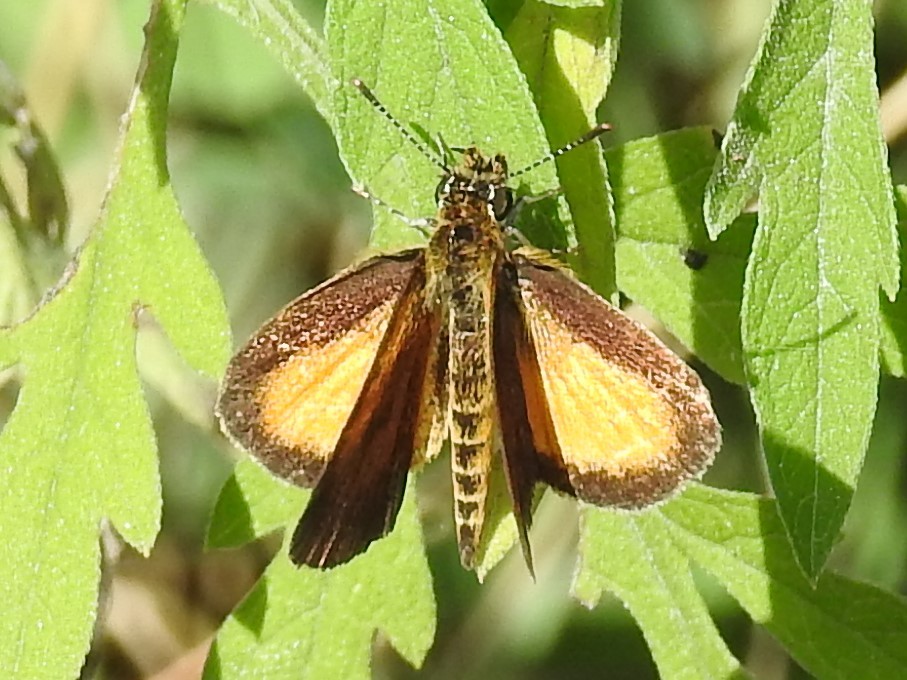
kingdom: Animalia
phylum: Arthropoda
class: Insecta
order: Lepidoptera
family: Hesperiidae
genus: Ancyloxypha
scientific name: Ancyloxypha numitor
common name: Least skipper
